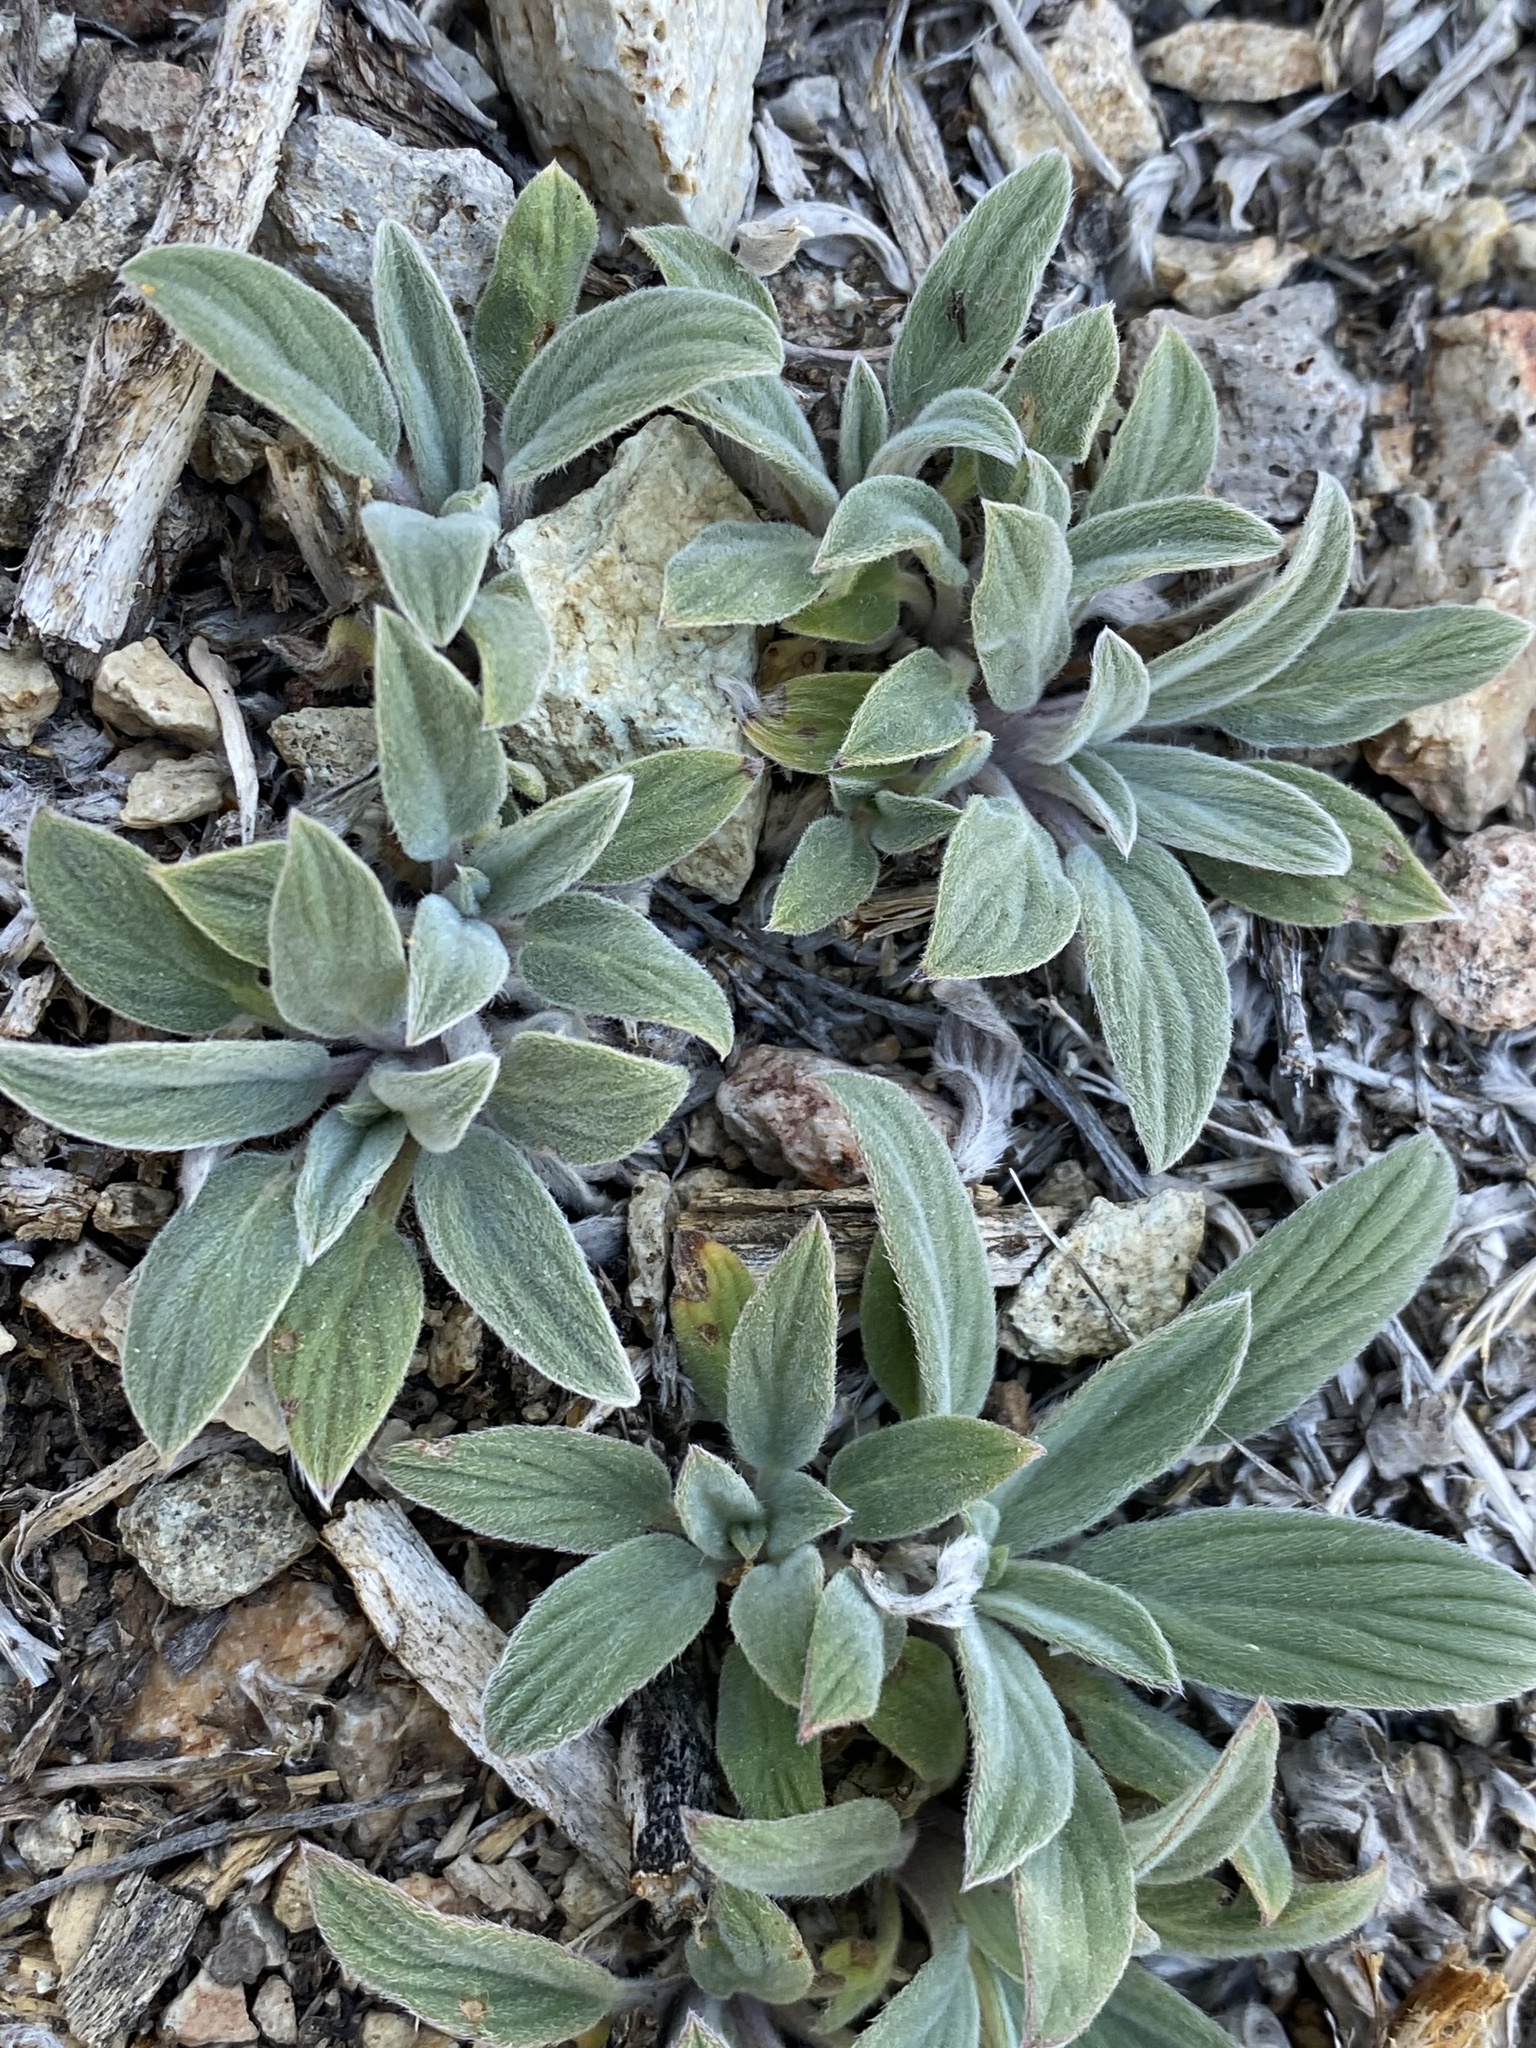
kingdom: Plantae
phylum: Tracheophyta
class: Magnoliopsida
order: Boraginales
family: Hydrophyllaceae
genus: Phacelia
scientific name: Phacelia hastata
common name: Silver-leaved phacelia
